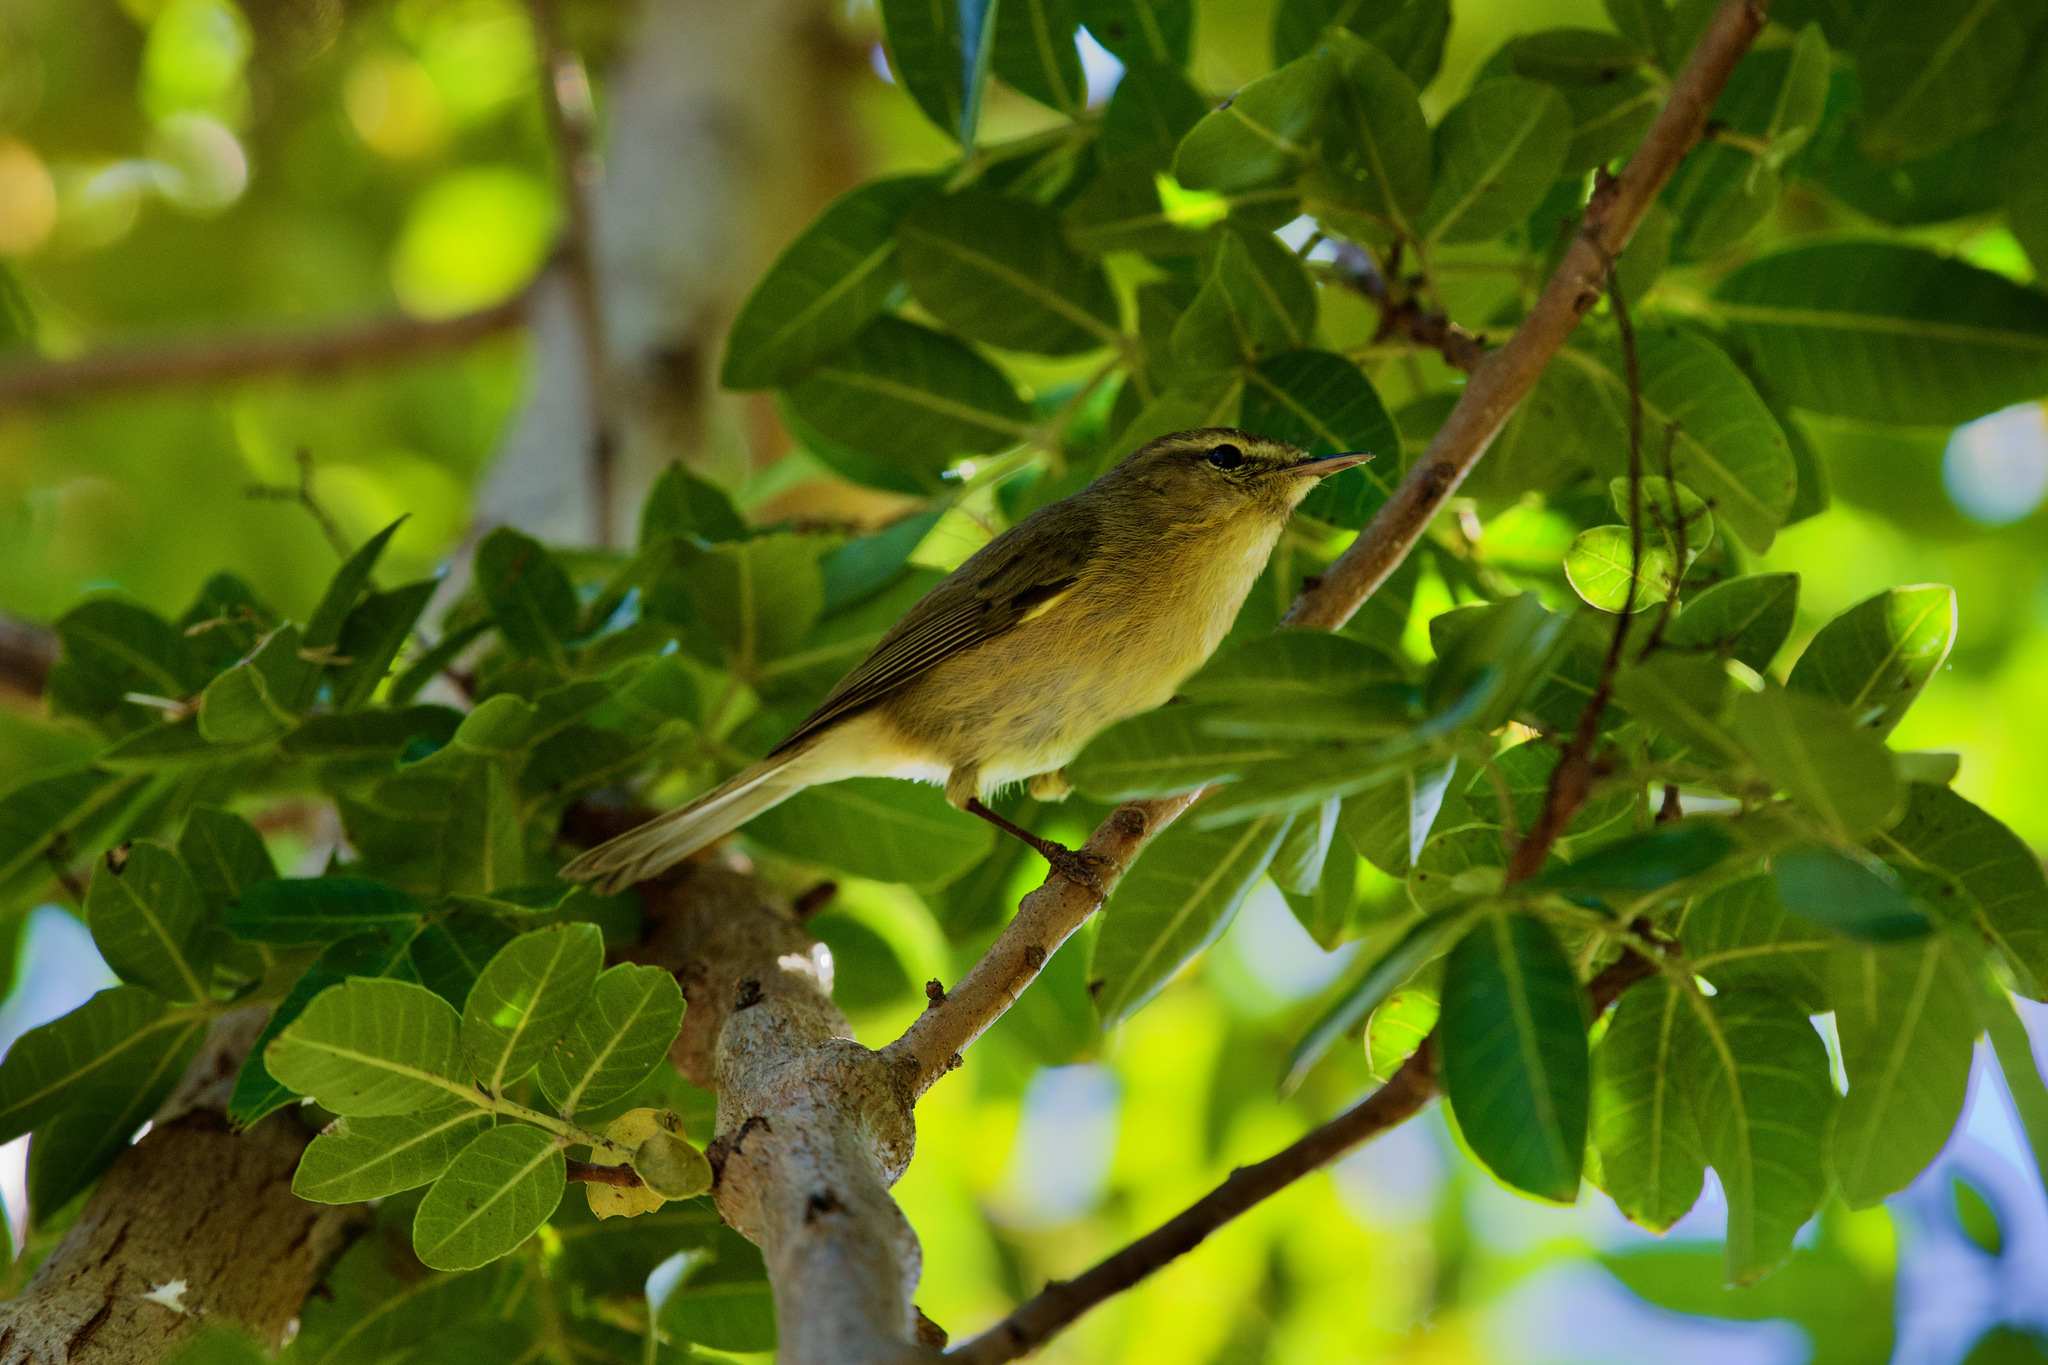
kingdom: Animalia
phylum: Chordata
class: Aves
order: Passeriformes
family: Phylloscopidae
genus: Phylloscopus
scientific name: Phylloscopus canariensis
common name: Canary islands chiffchaff
